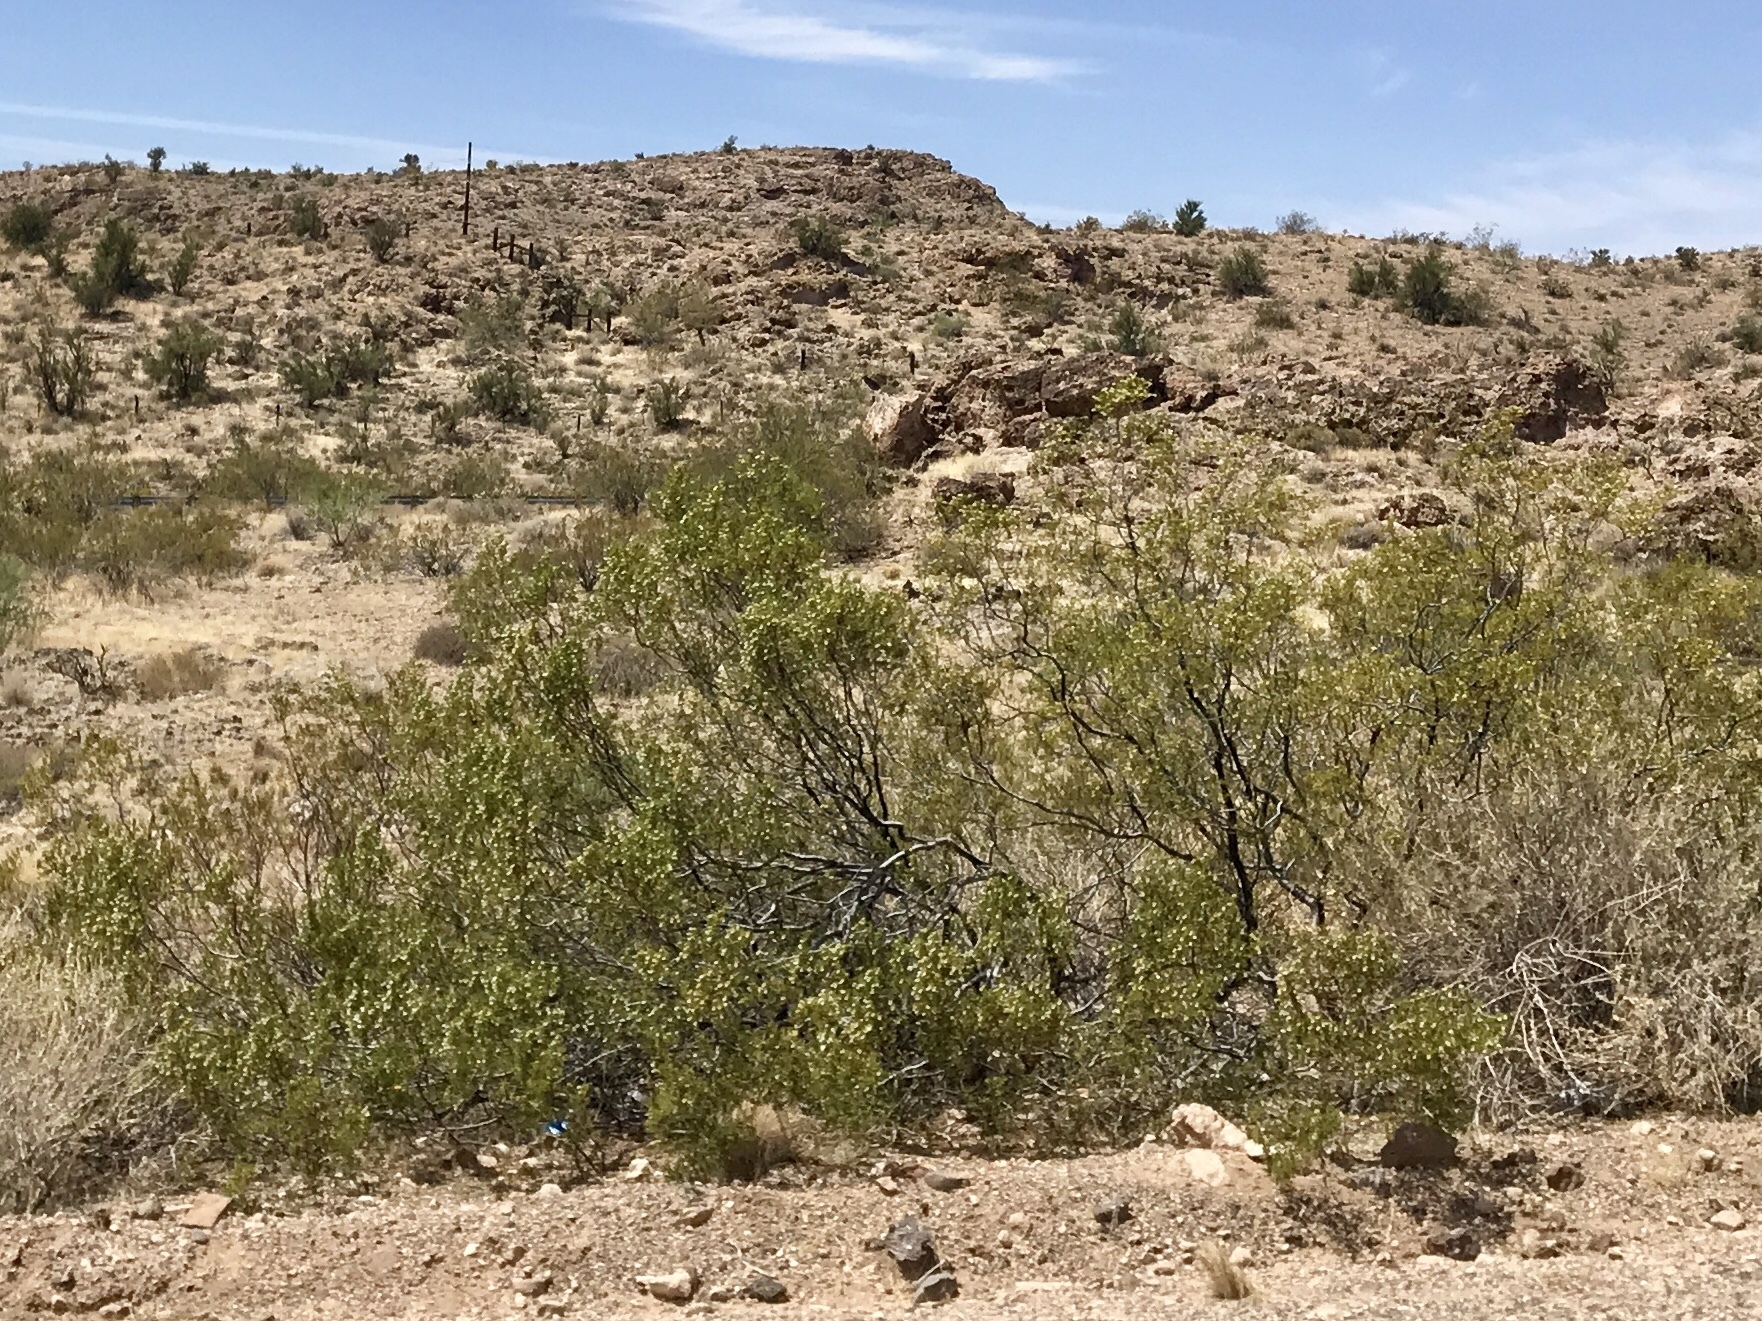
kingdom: Plantae
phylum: Tracheophyta
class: Magnoliopsida
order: Zygophyllales
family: Zygophyllaceae
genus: Larrea
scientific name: Larrea tridentata
